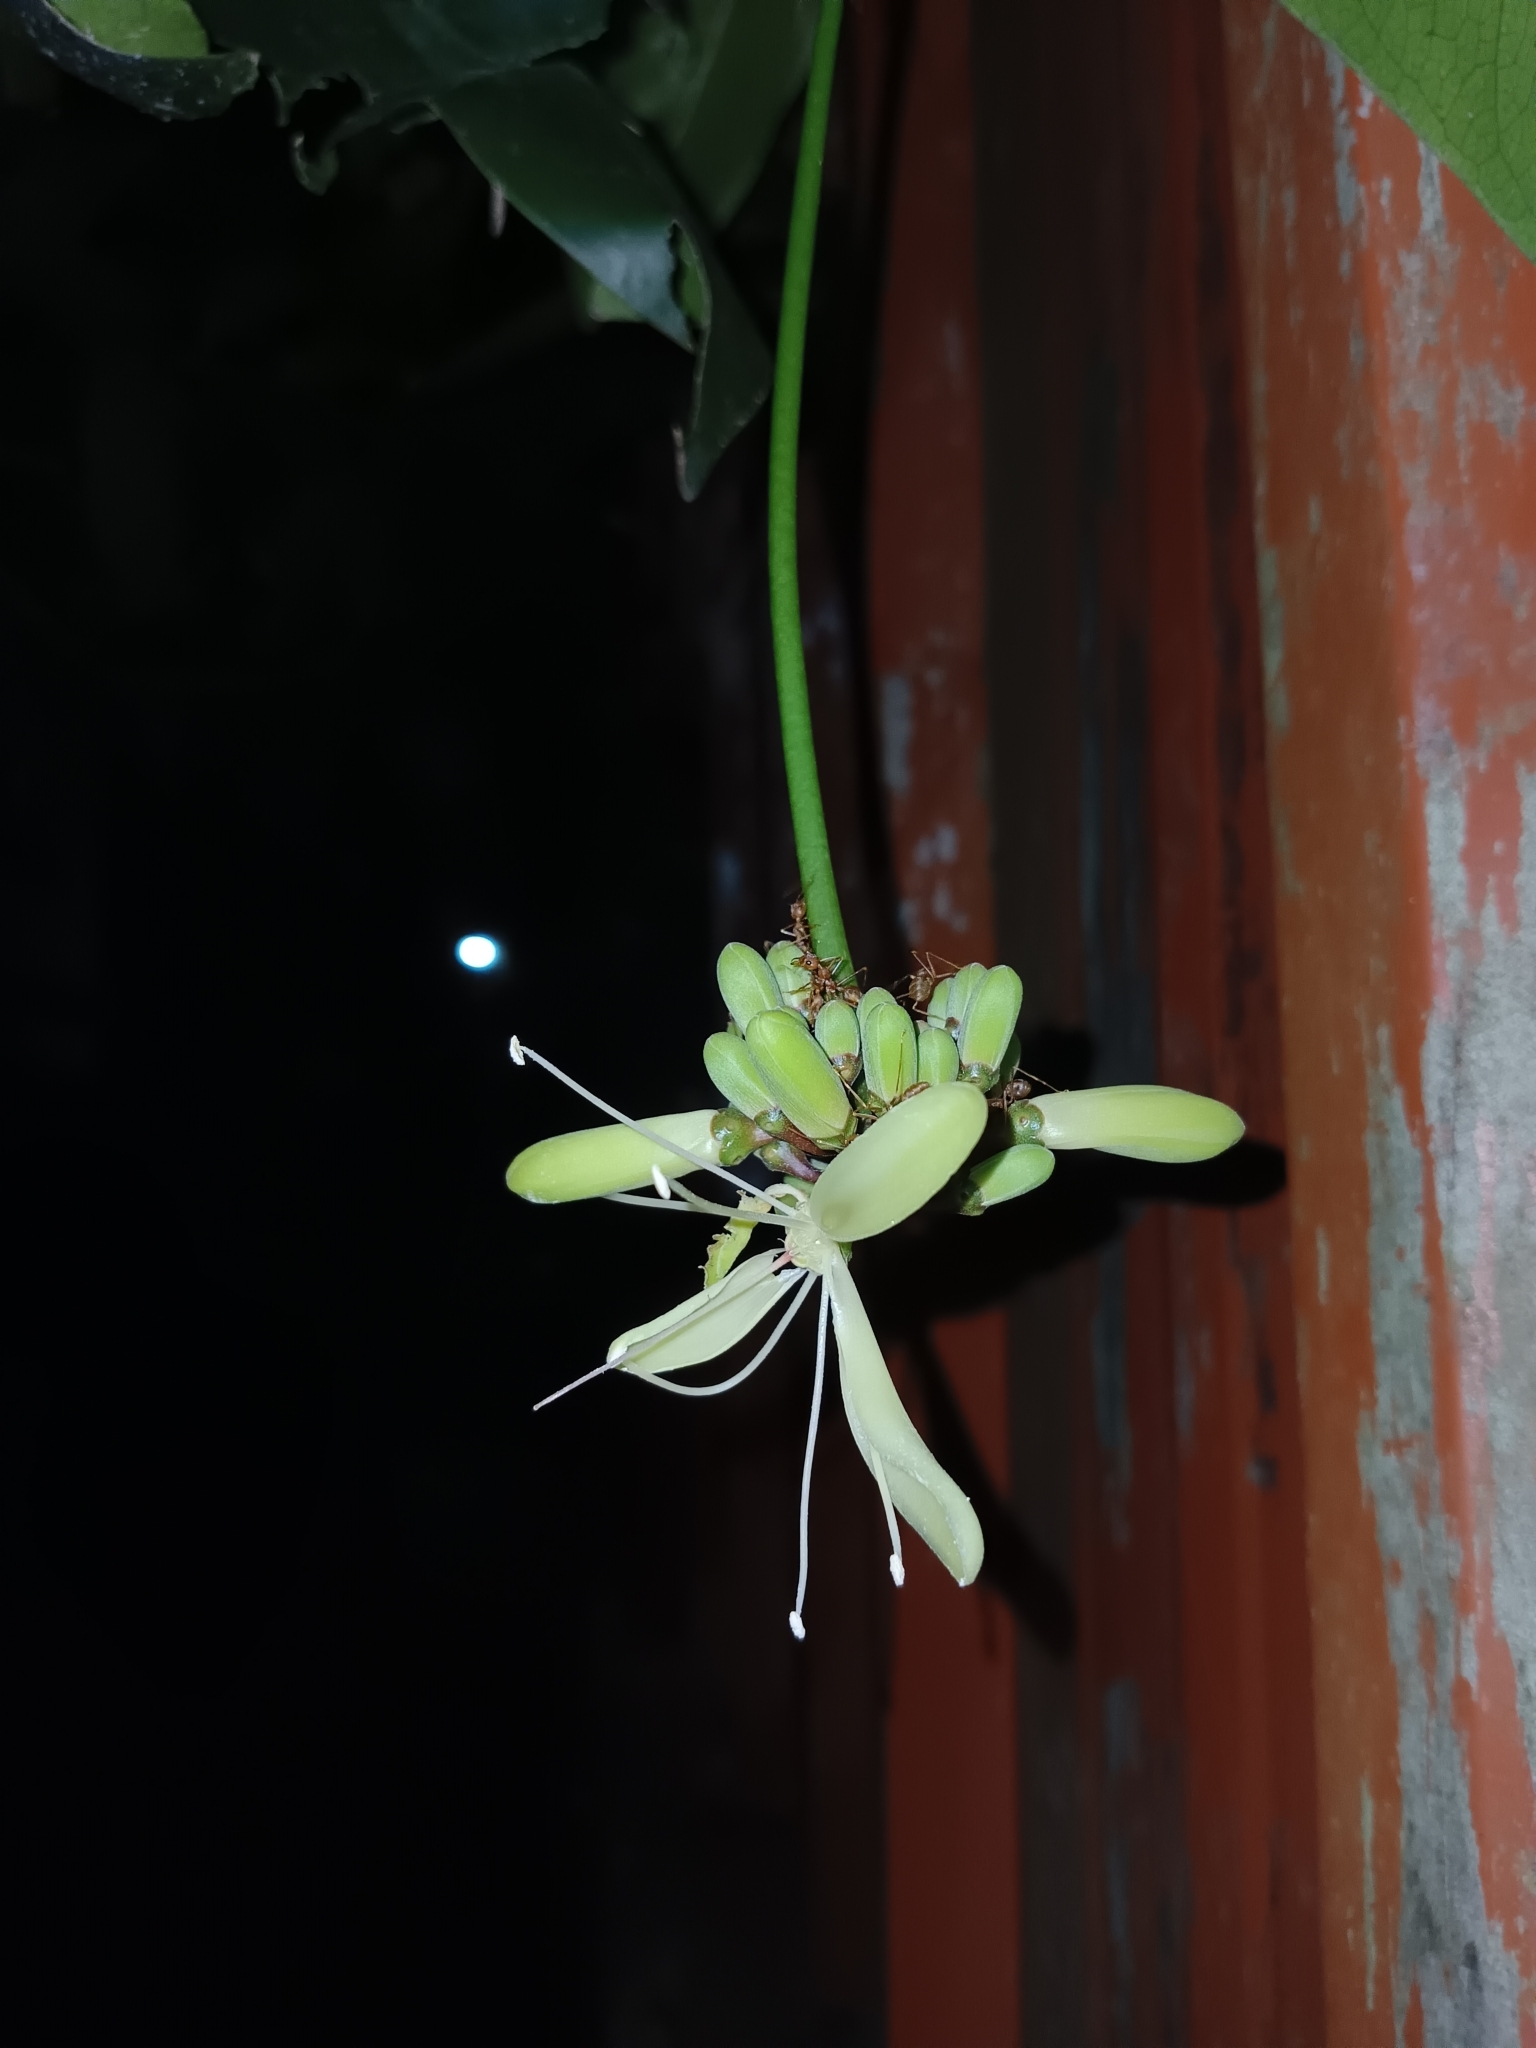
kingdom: Plantae
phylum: Tracheophyta
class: Magnoliopsida
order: Sapindales
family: Simaroubaceae
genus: Samadera
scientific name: Samadera indica
